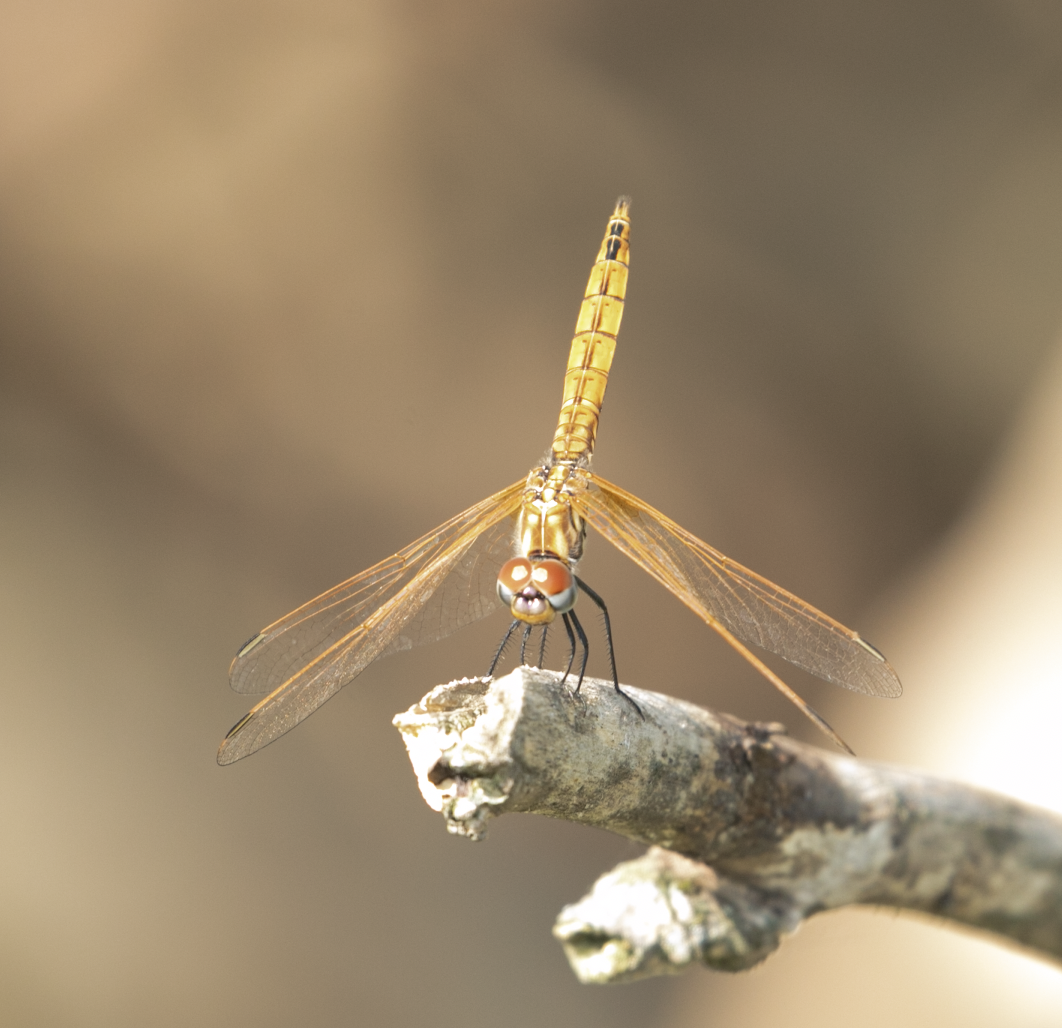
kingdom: Animalia
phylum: Arthropoda
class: Insecta
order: Odonata
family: Libellulidae
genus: Trithemis
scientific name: Trithemis annulata
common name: Violet dropwing
